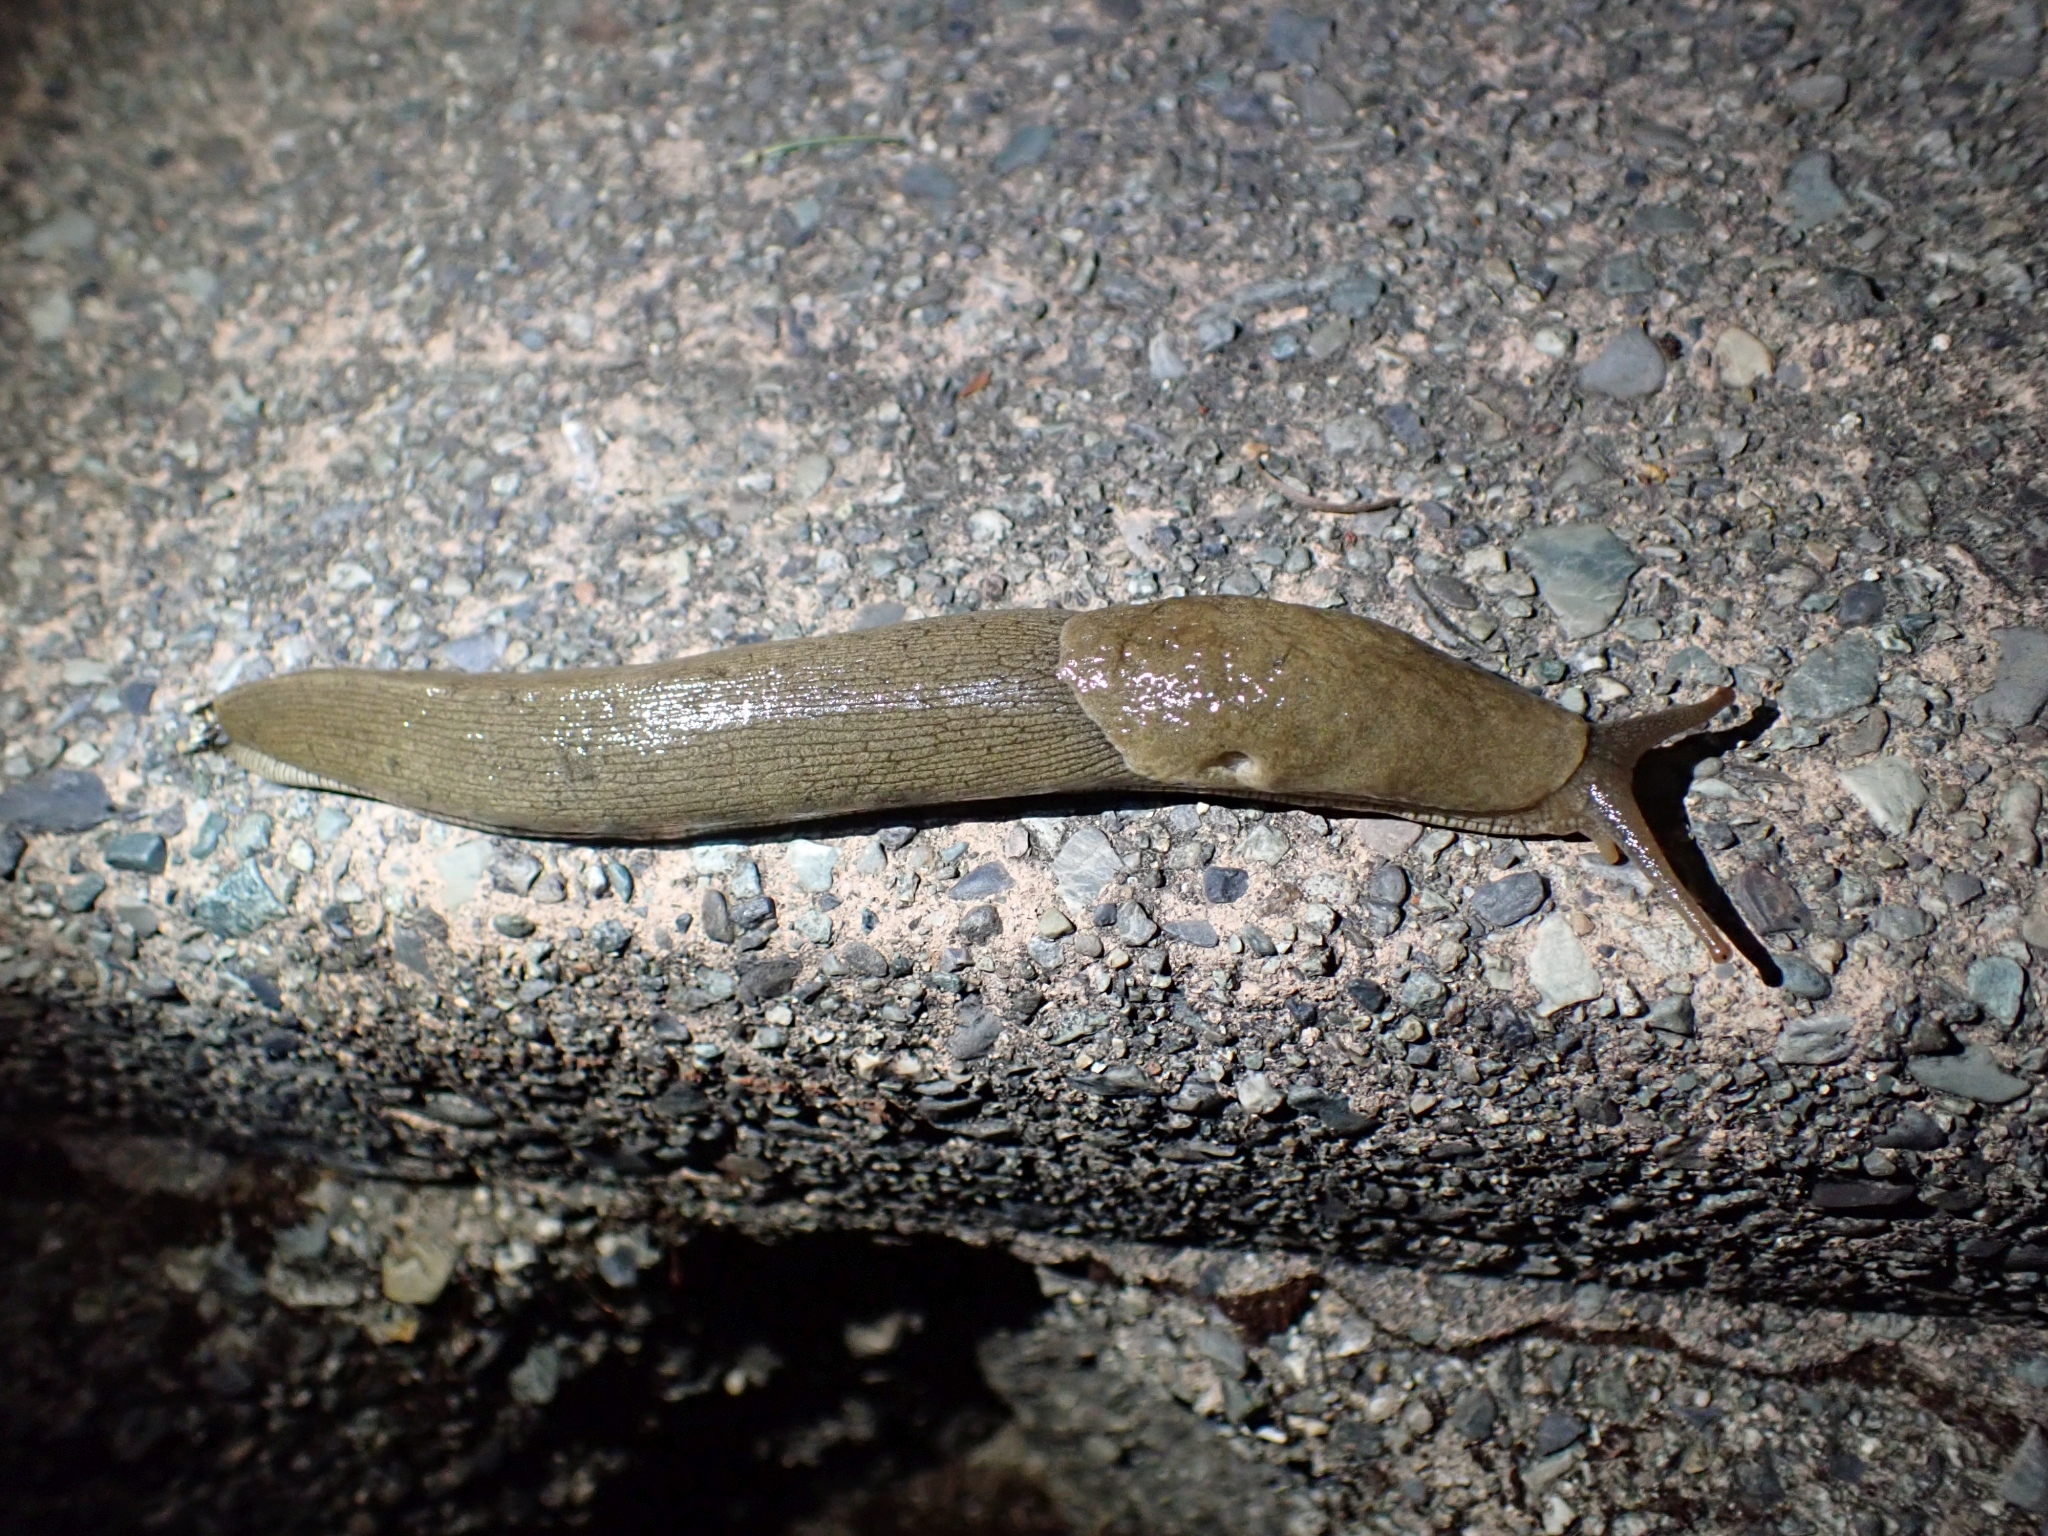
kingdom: Animalia
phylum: Mollusca
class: Gastropoda
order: Stylommatophora
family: Ariolimacidae
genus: Ariolimax
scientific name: Ariolimax columbianus
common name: Pacific banana slug
